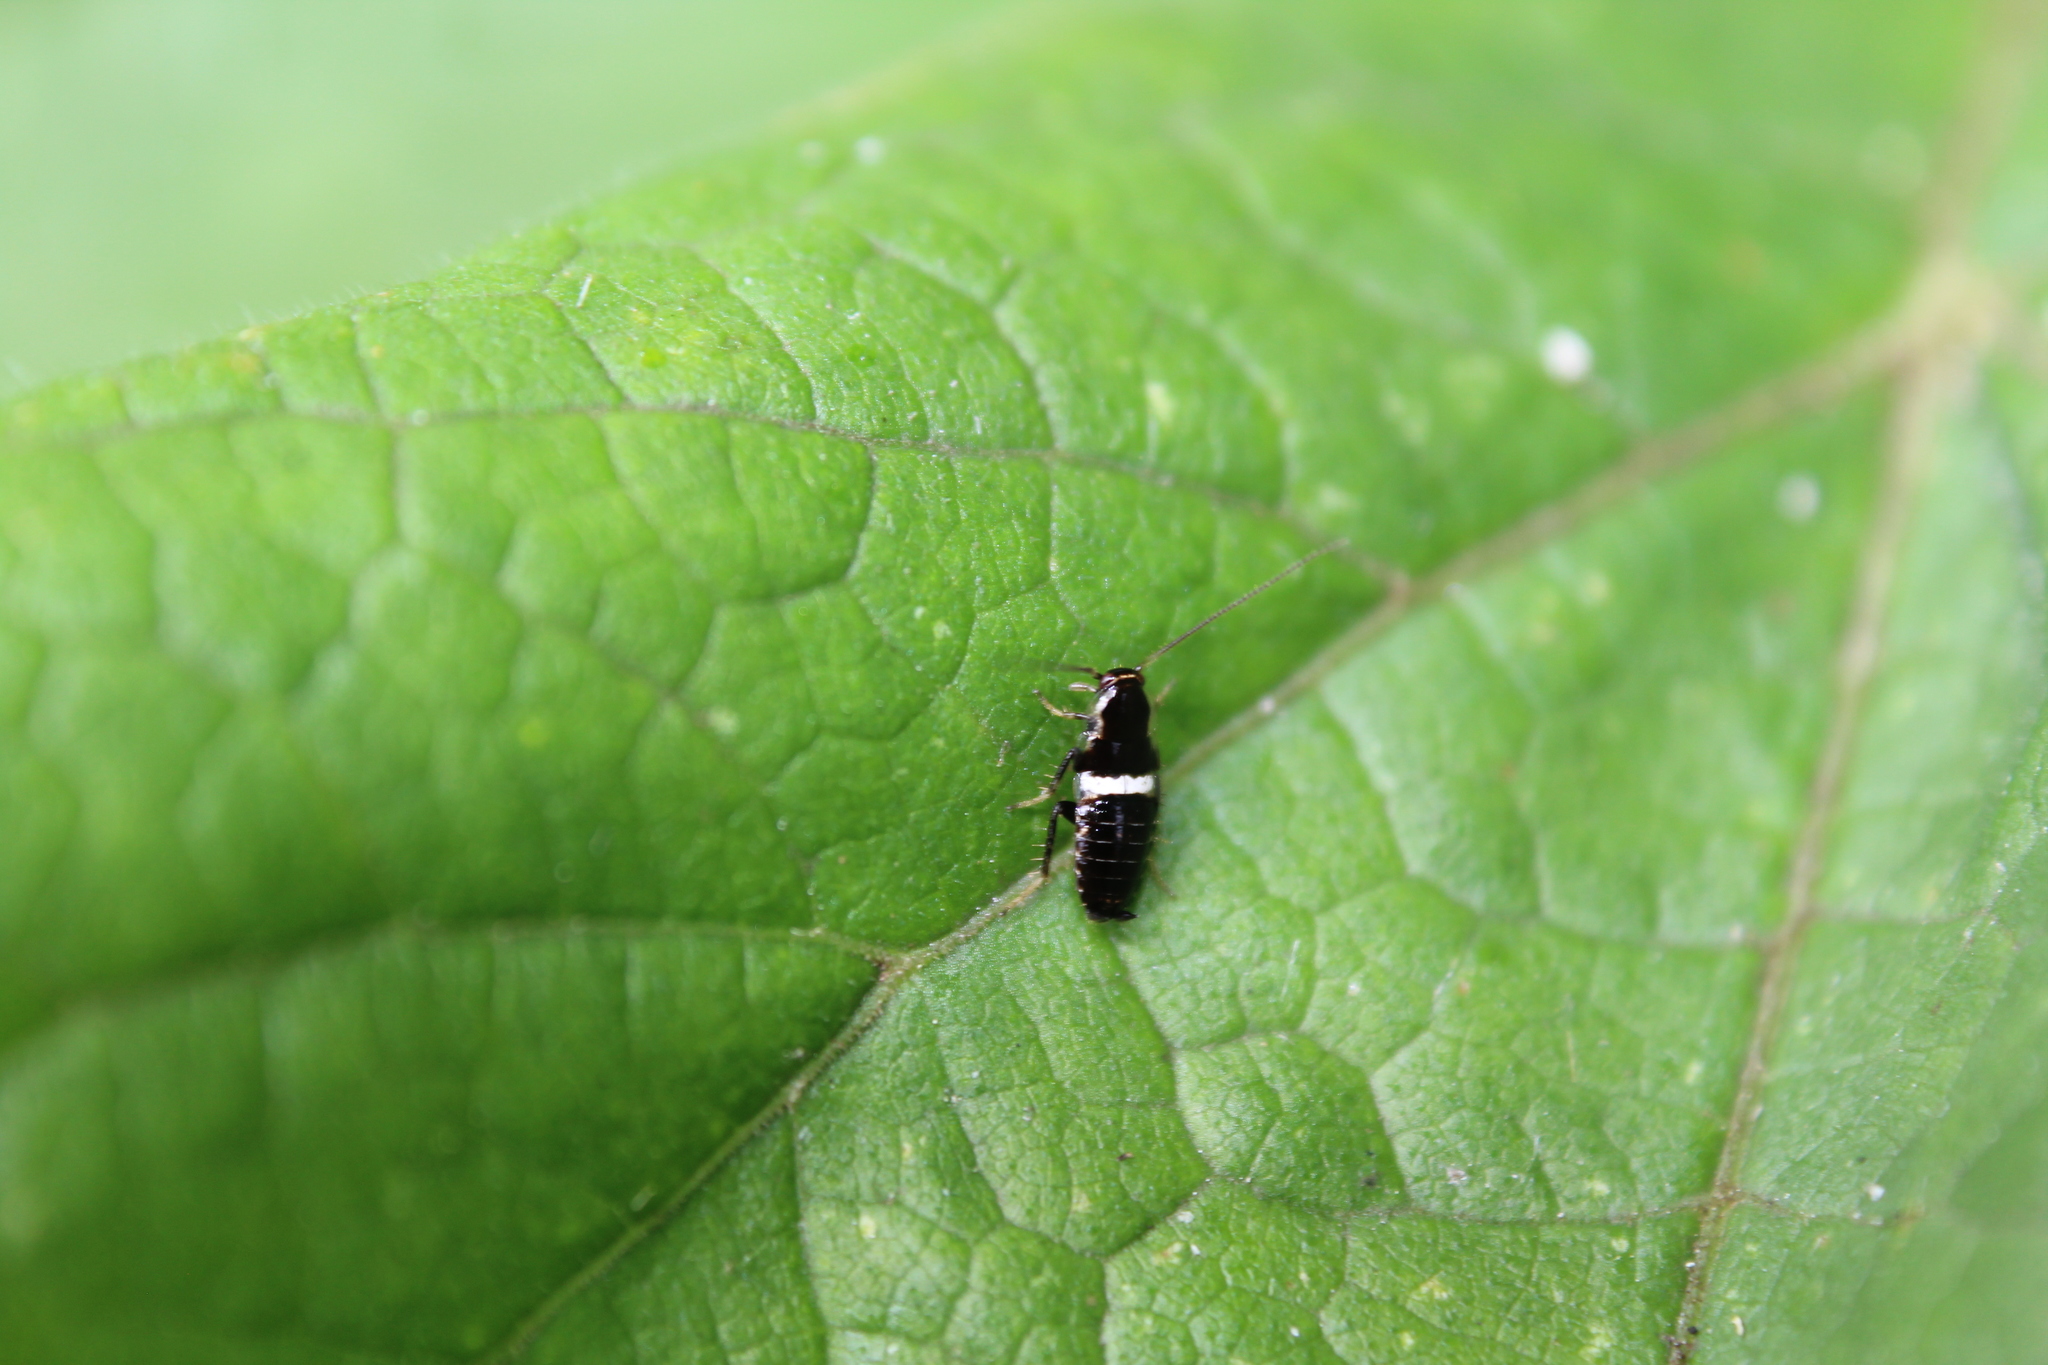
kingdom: Animalia
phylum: Arthropoda
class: Insecta
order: Blattodea
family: Ectobiidae
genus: Planuncus
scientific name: Planuncus vinzi
